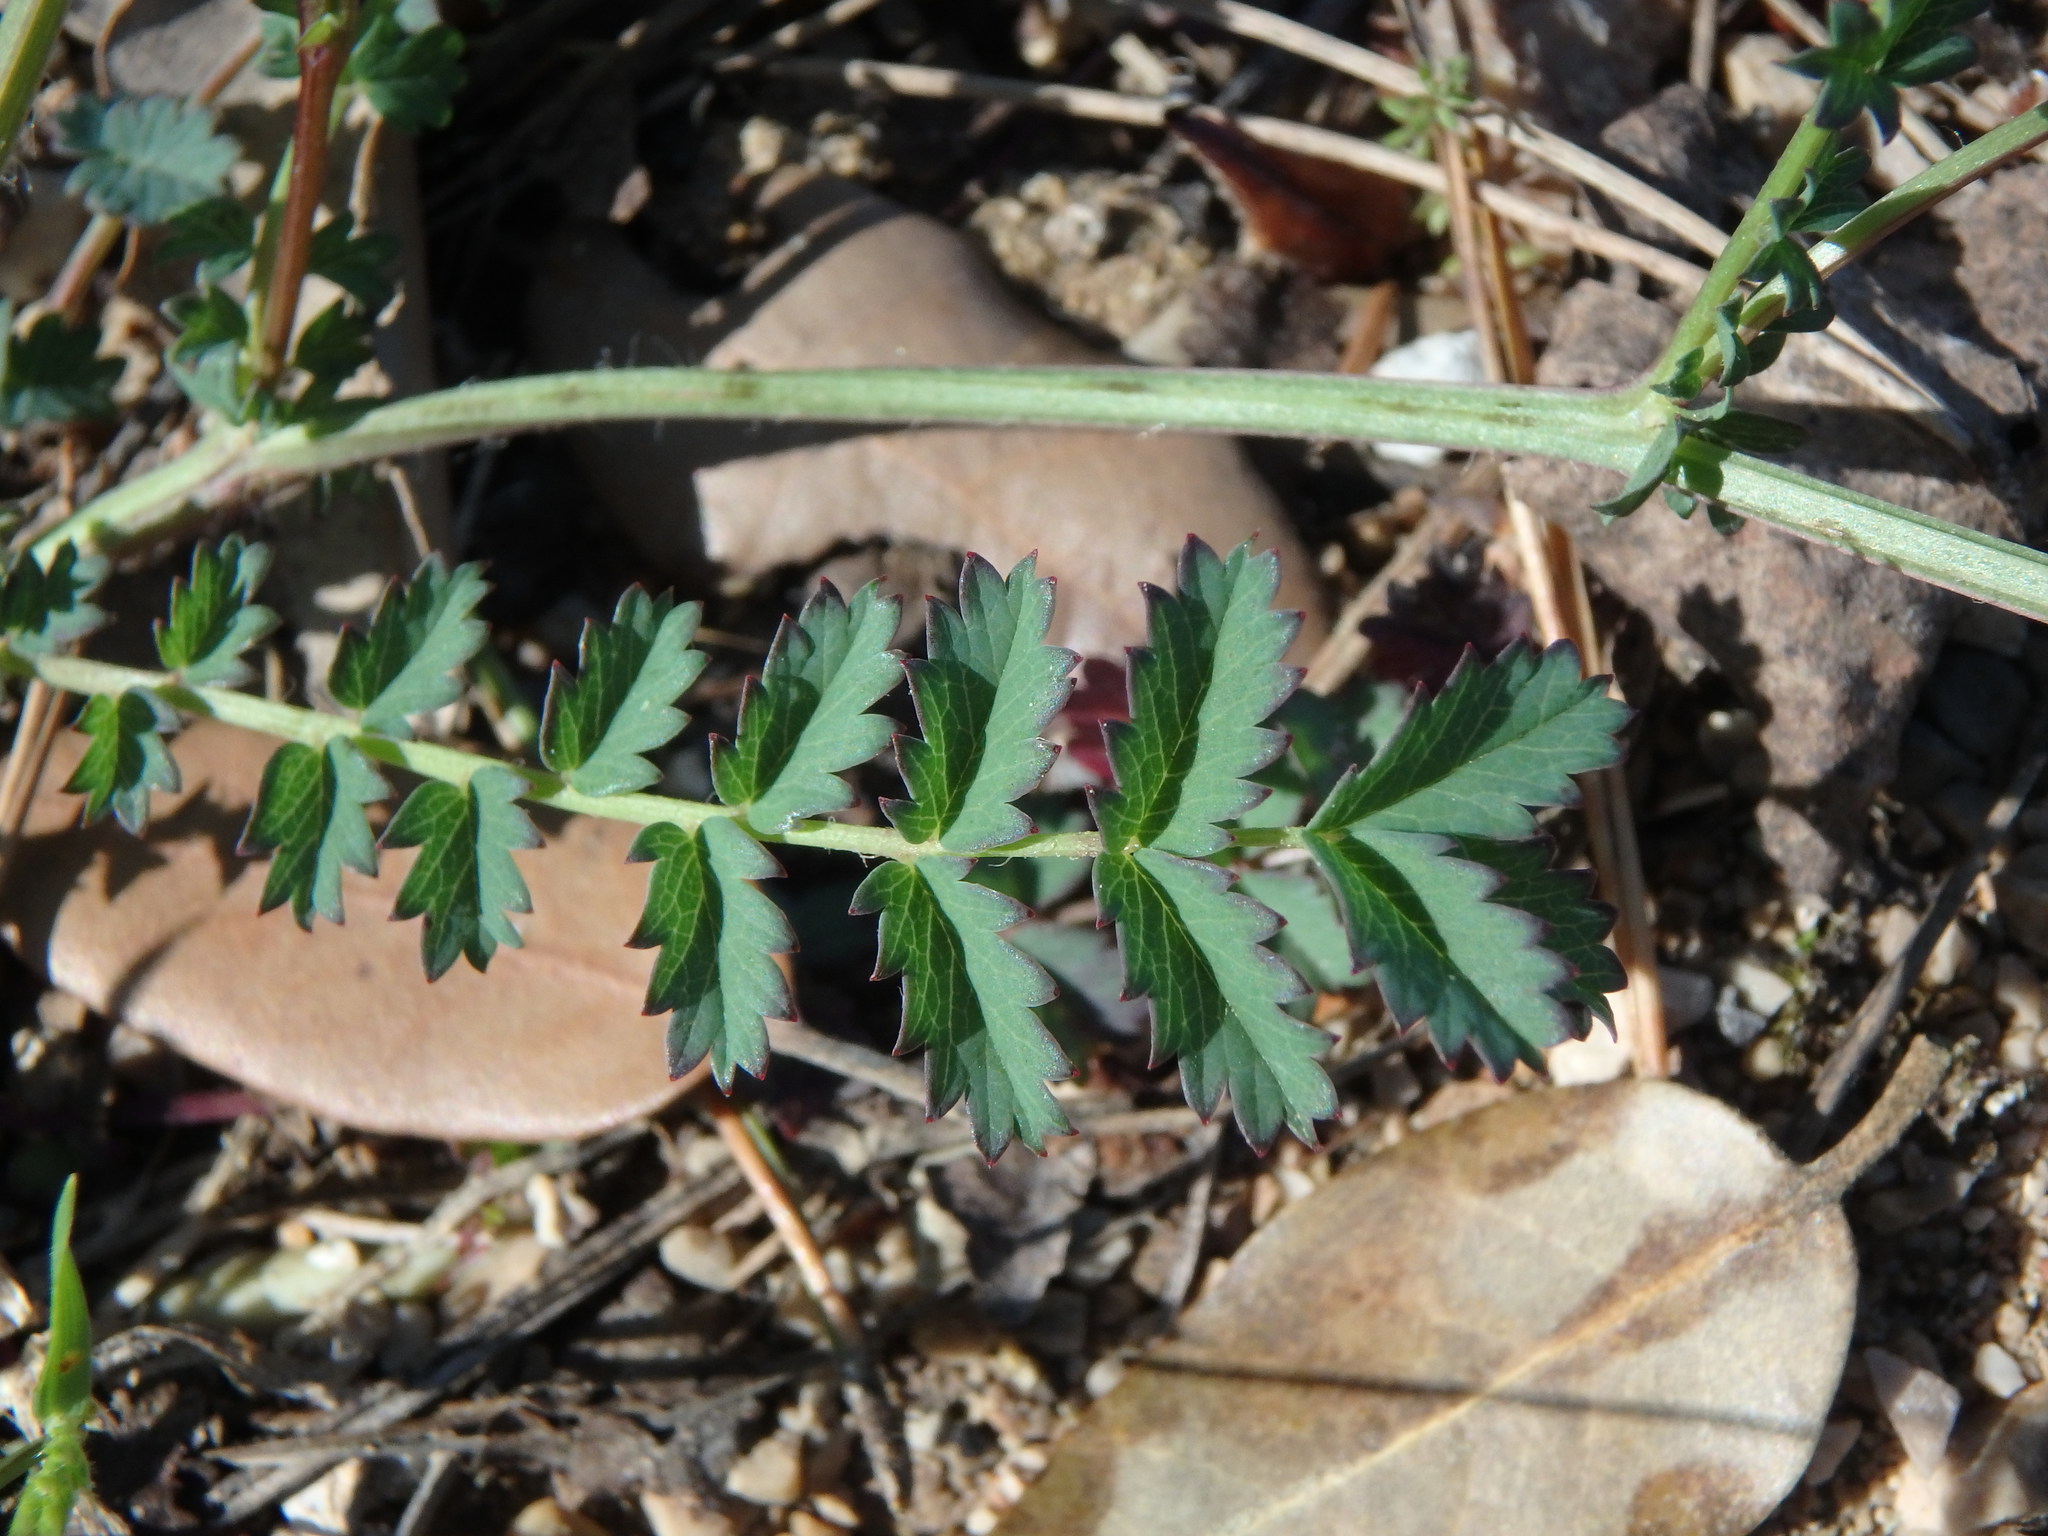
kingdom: Plantae
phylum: Tracheophyta
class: Magnoliopsida
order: Rosales
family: Rosaceae
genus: Poterium
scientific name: Poterium sanguisorba
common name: Salad burnet
